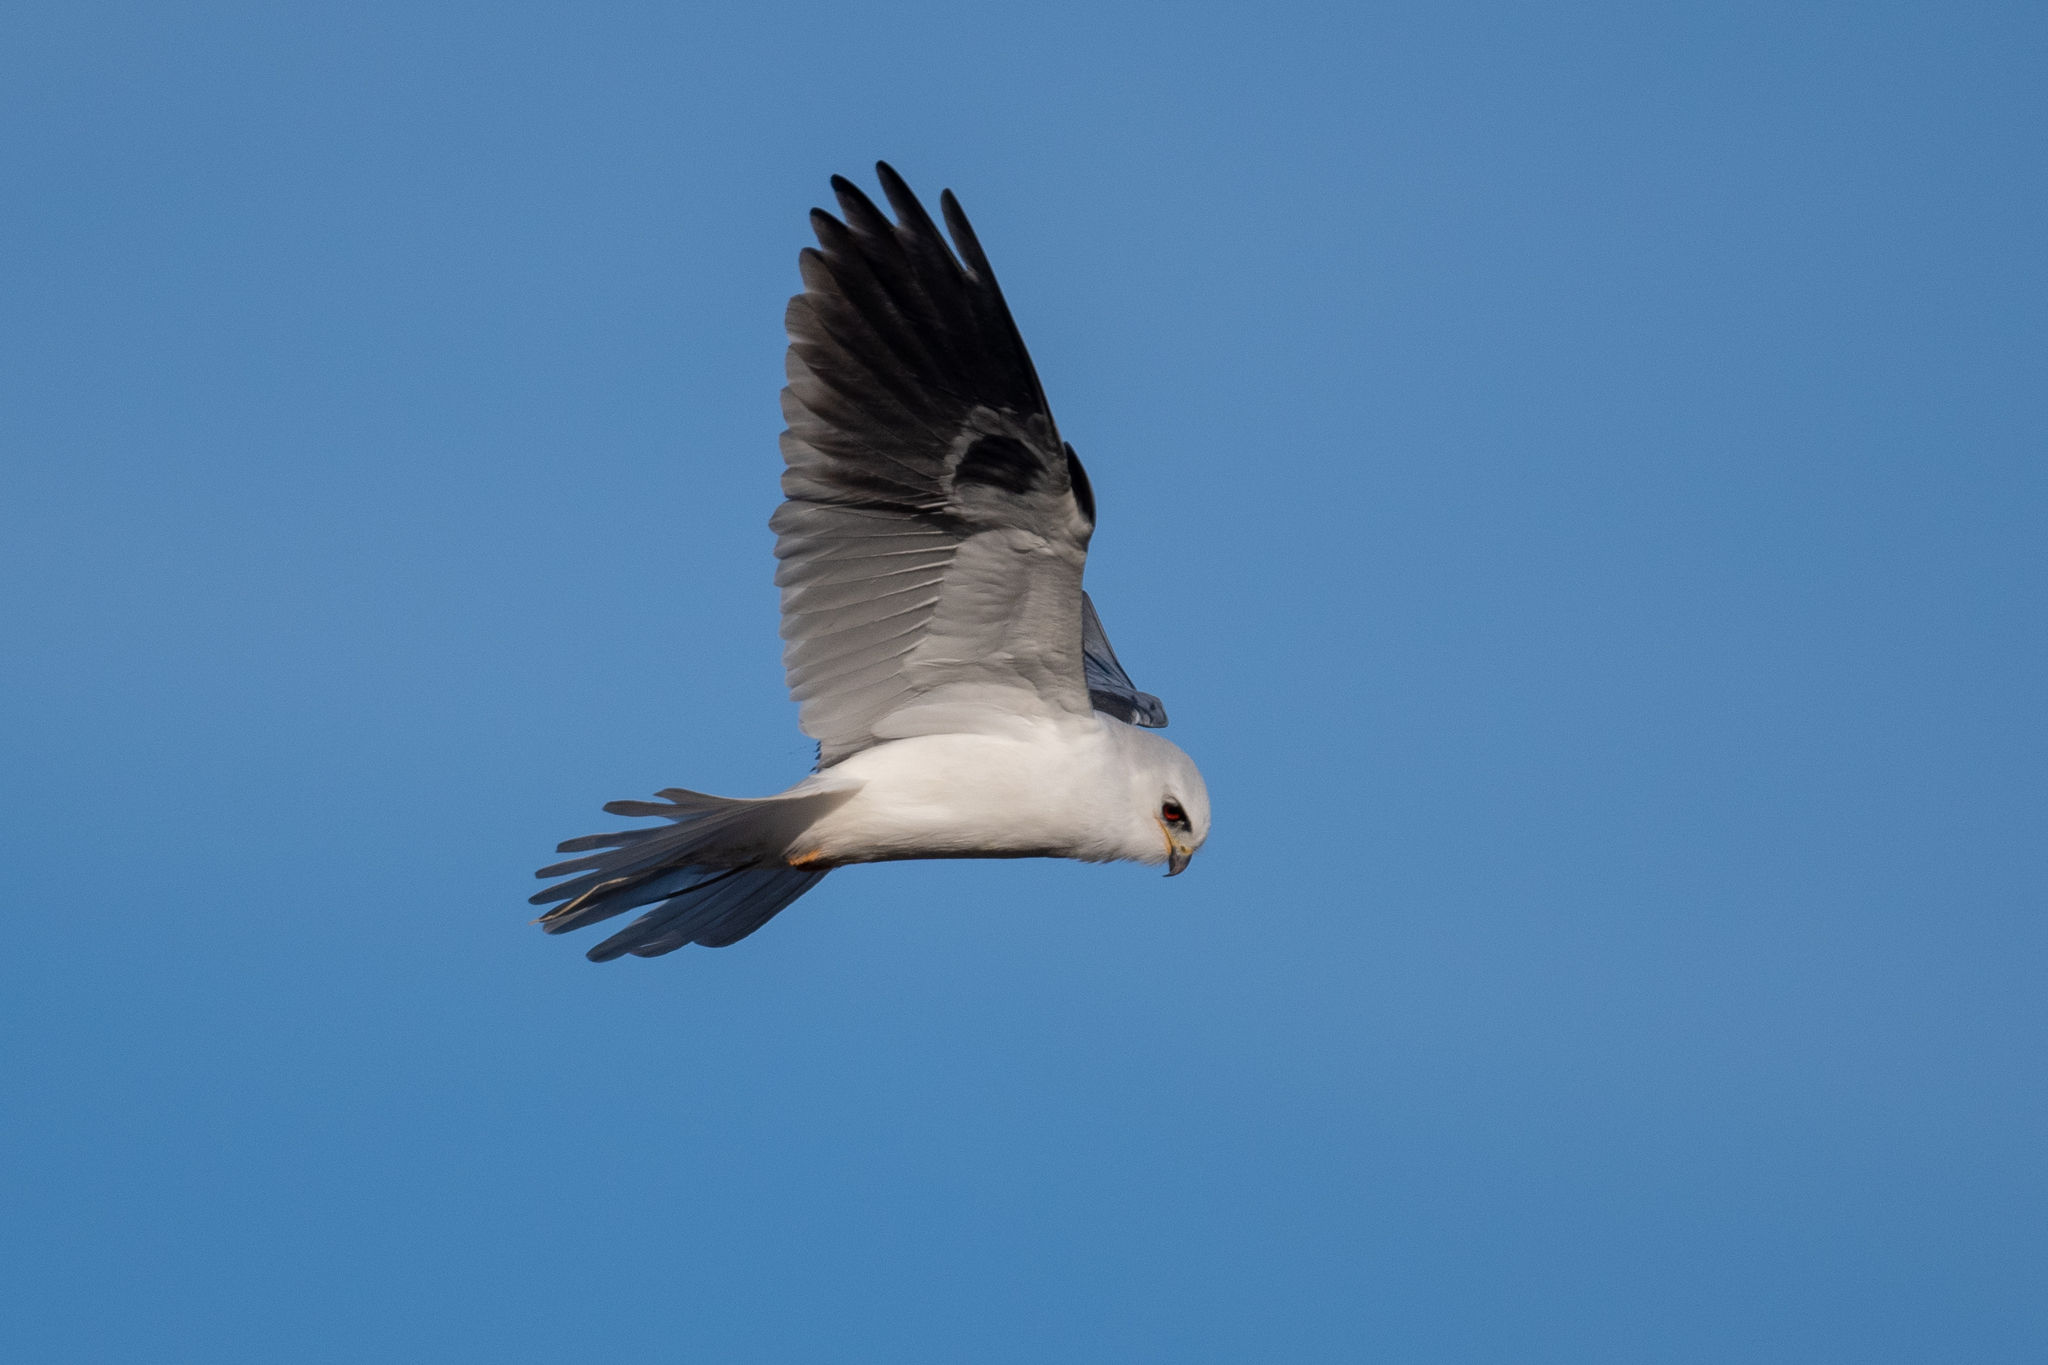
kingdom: Animalia
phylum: Chordata
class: Aves
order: Accipitriformes
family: Accipitridae
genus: Elanus
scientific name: Elanus leucurus
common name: White-tailed kite
